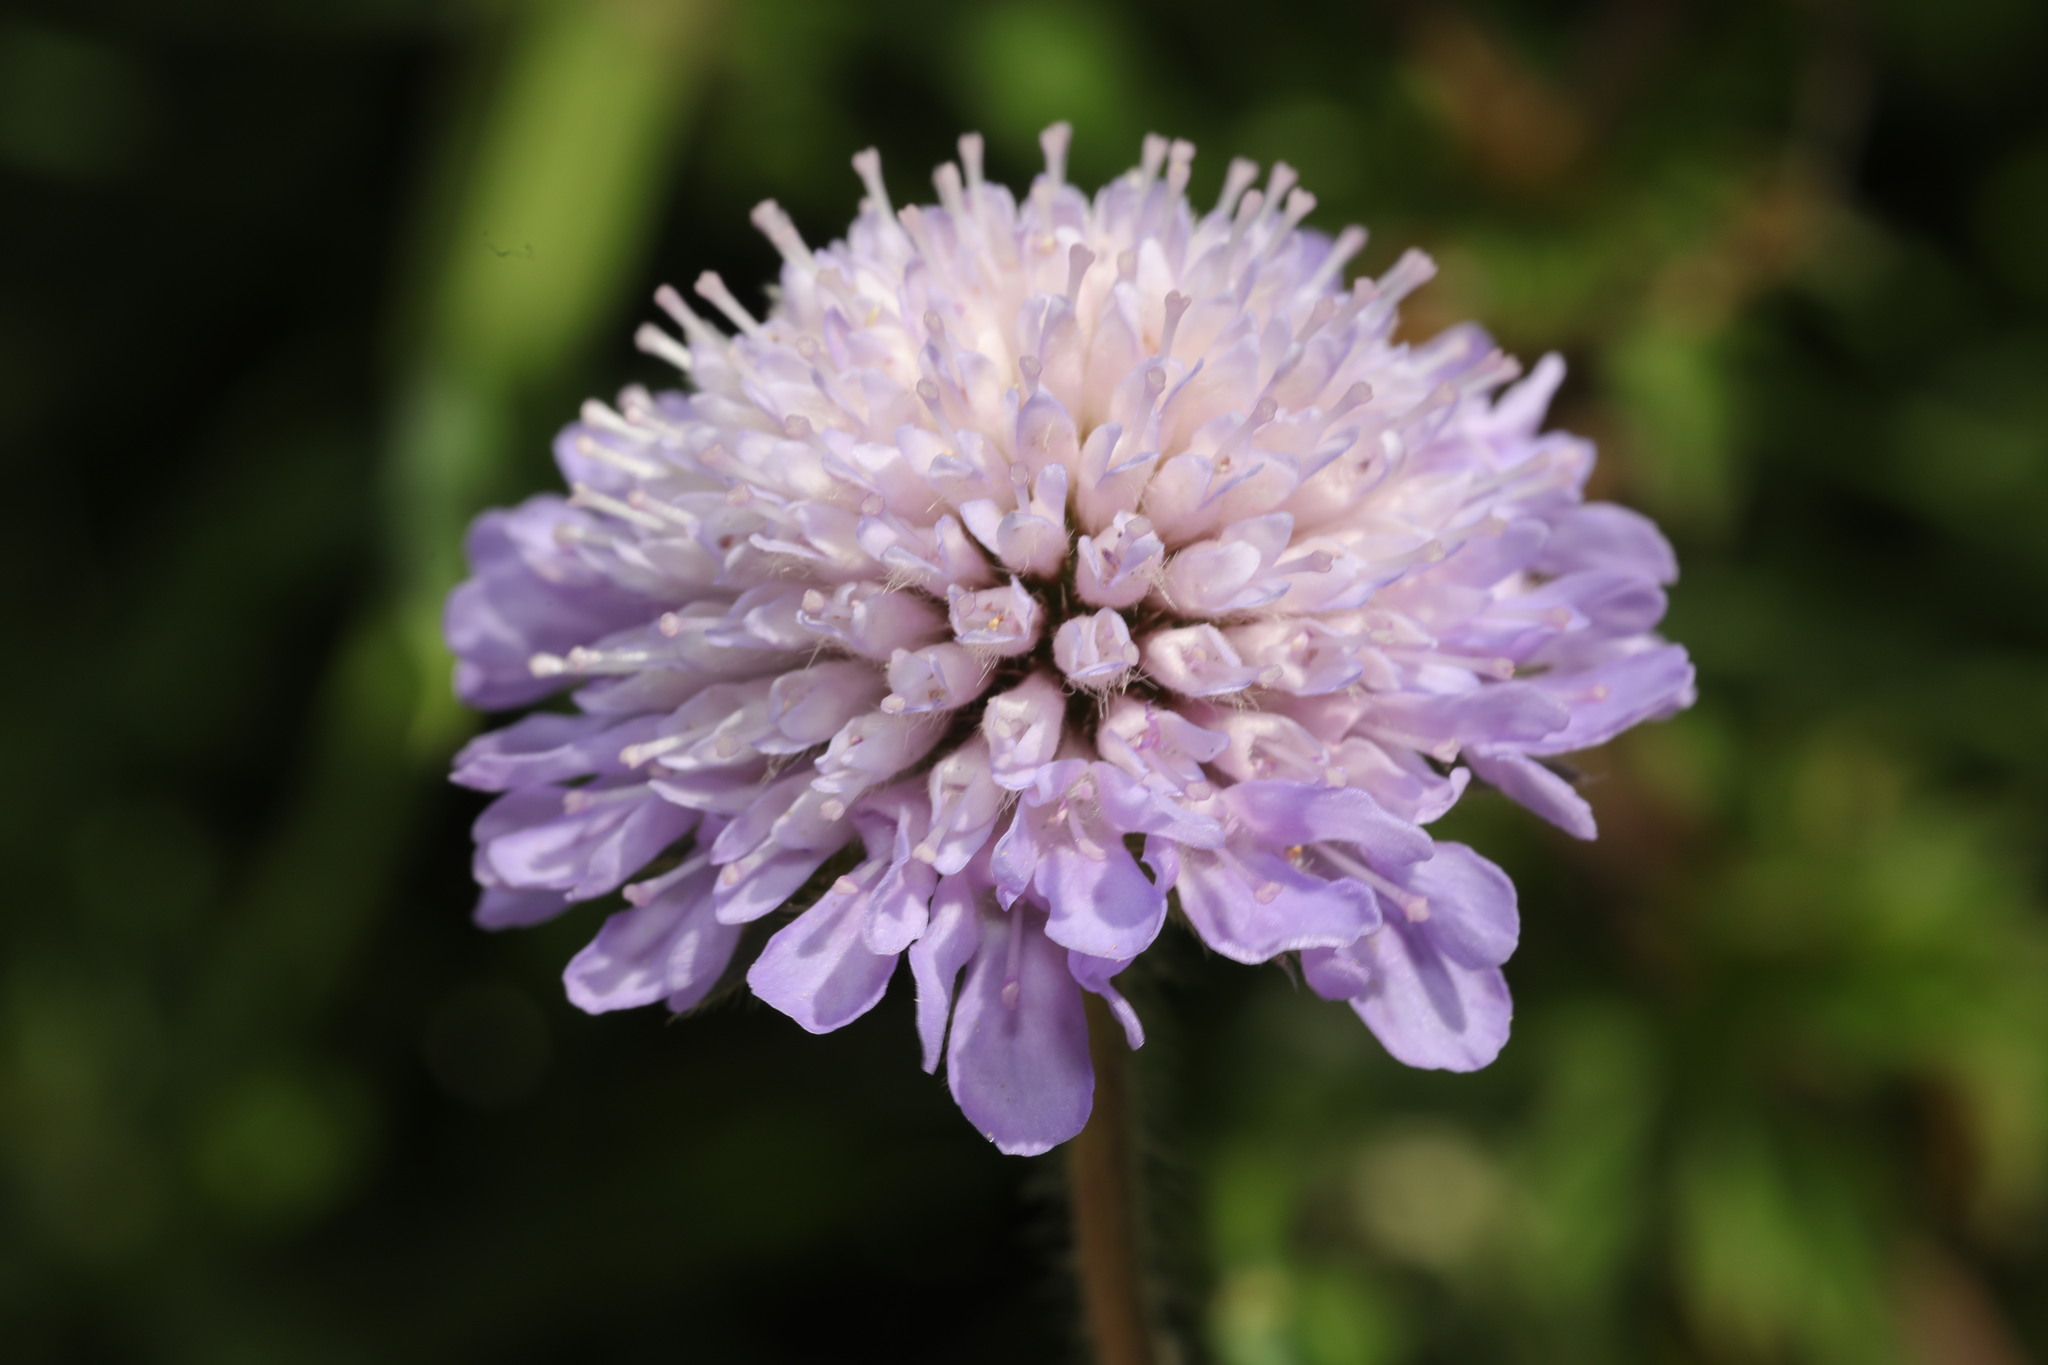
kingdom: Plantae
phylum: Tracheophyta
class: Magnoliopsida
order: Dipsacales
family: Caprifoliaceae
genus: Knautia
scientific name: Knautia arvensis
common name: Field scabiosa
